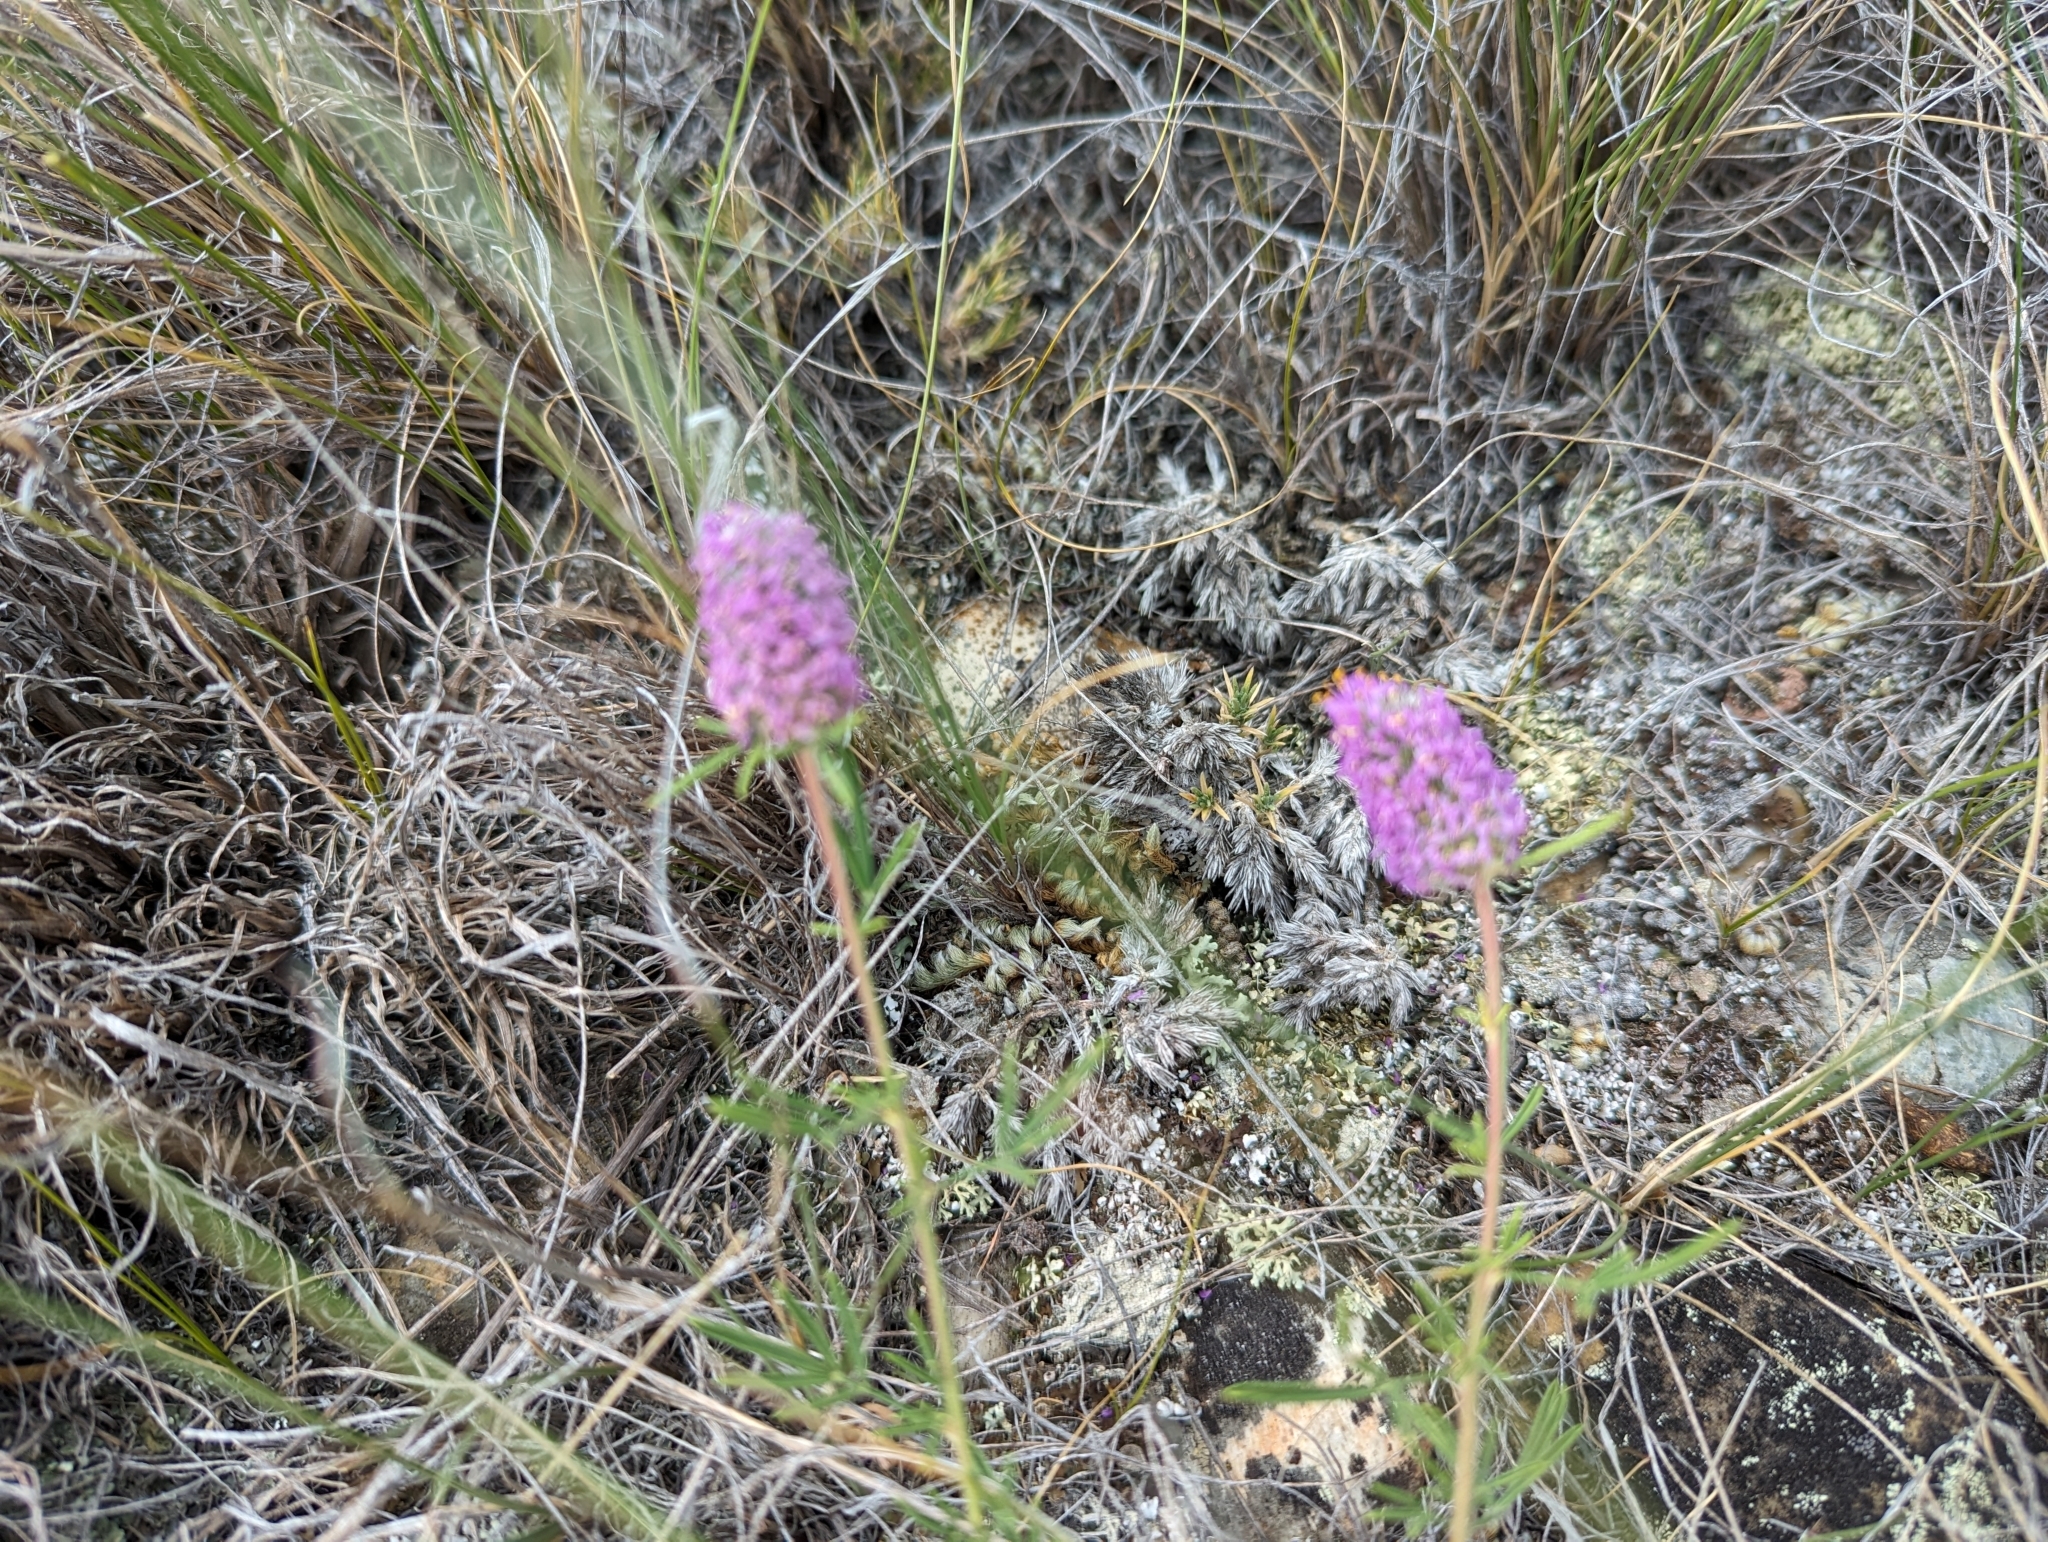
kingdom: Plantae
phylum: Tracheophyta
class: Magnoliopsida
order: Fabales
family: Fabaceae
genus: Dalea
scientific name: Dalea purpurea
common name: Purple prairie-clover
